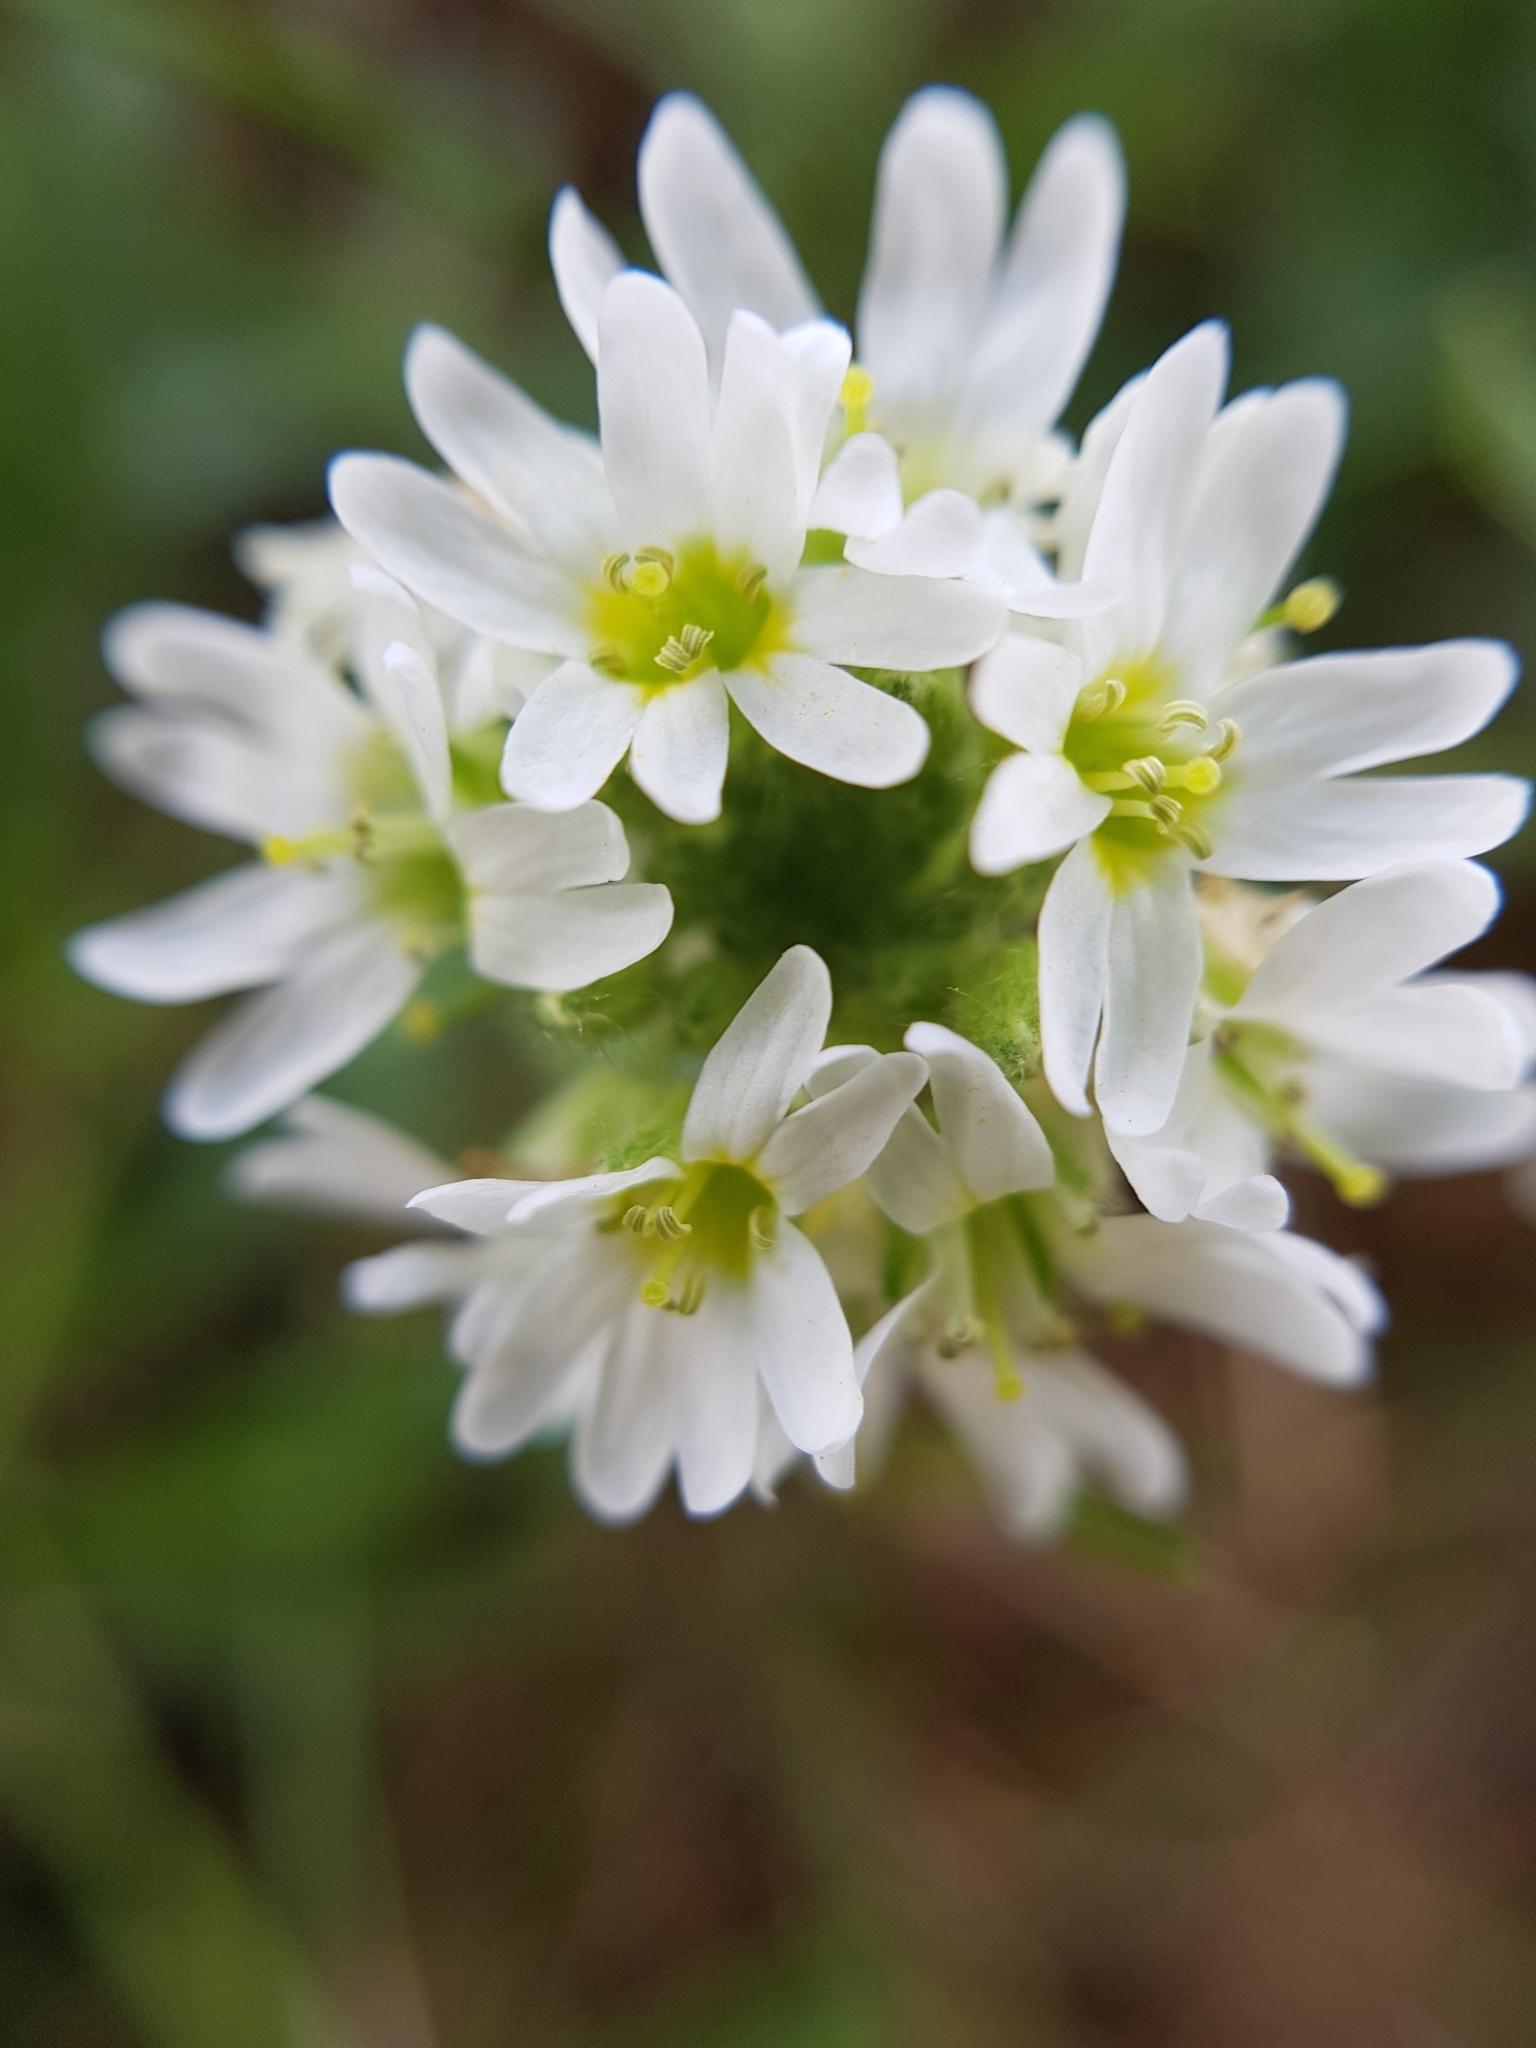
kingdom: Plantae
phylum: Tracheophyta
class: Magnoliopsida
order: Brassicales
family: Brassicaceae
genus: Berteroa
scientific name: Berteroa incana
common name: Hoary alison
